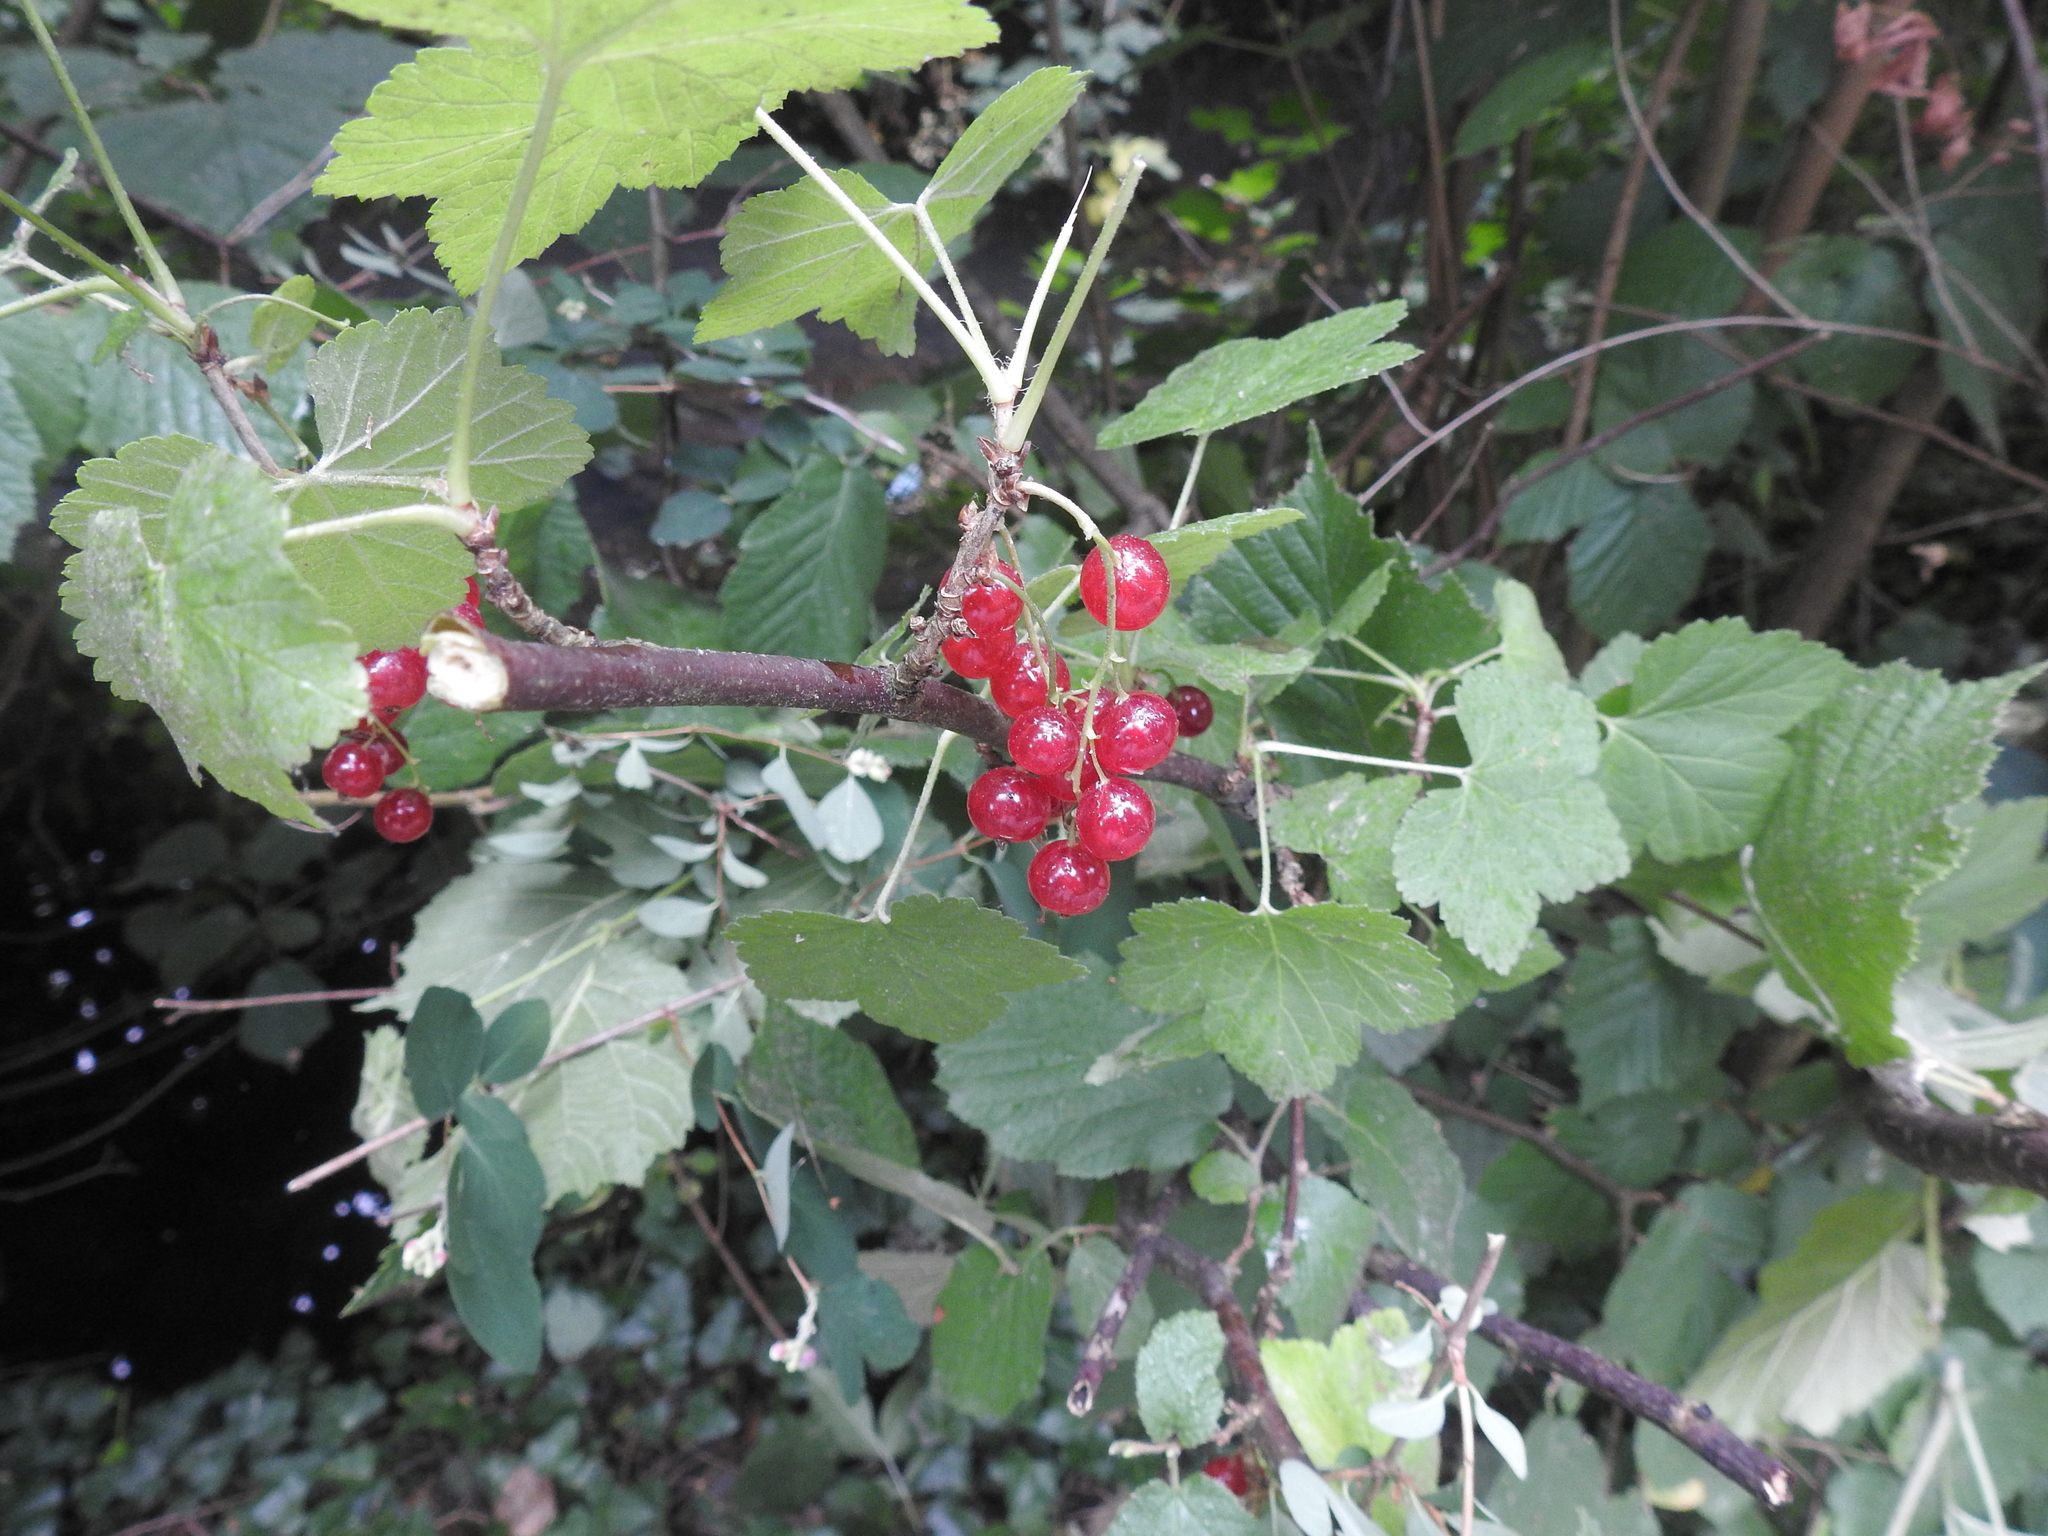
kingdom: Plantae
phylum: Tracheophyta
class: Magnoliopsida
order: Saxifragales
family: Grossulariaceae
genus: Ribes
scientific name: Ribes rubrum
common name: Red currant
